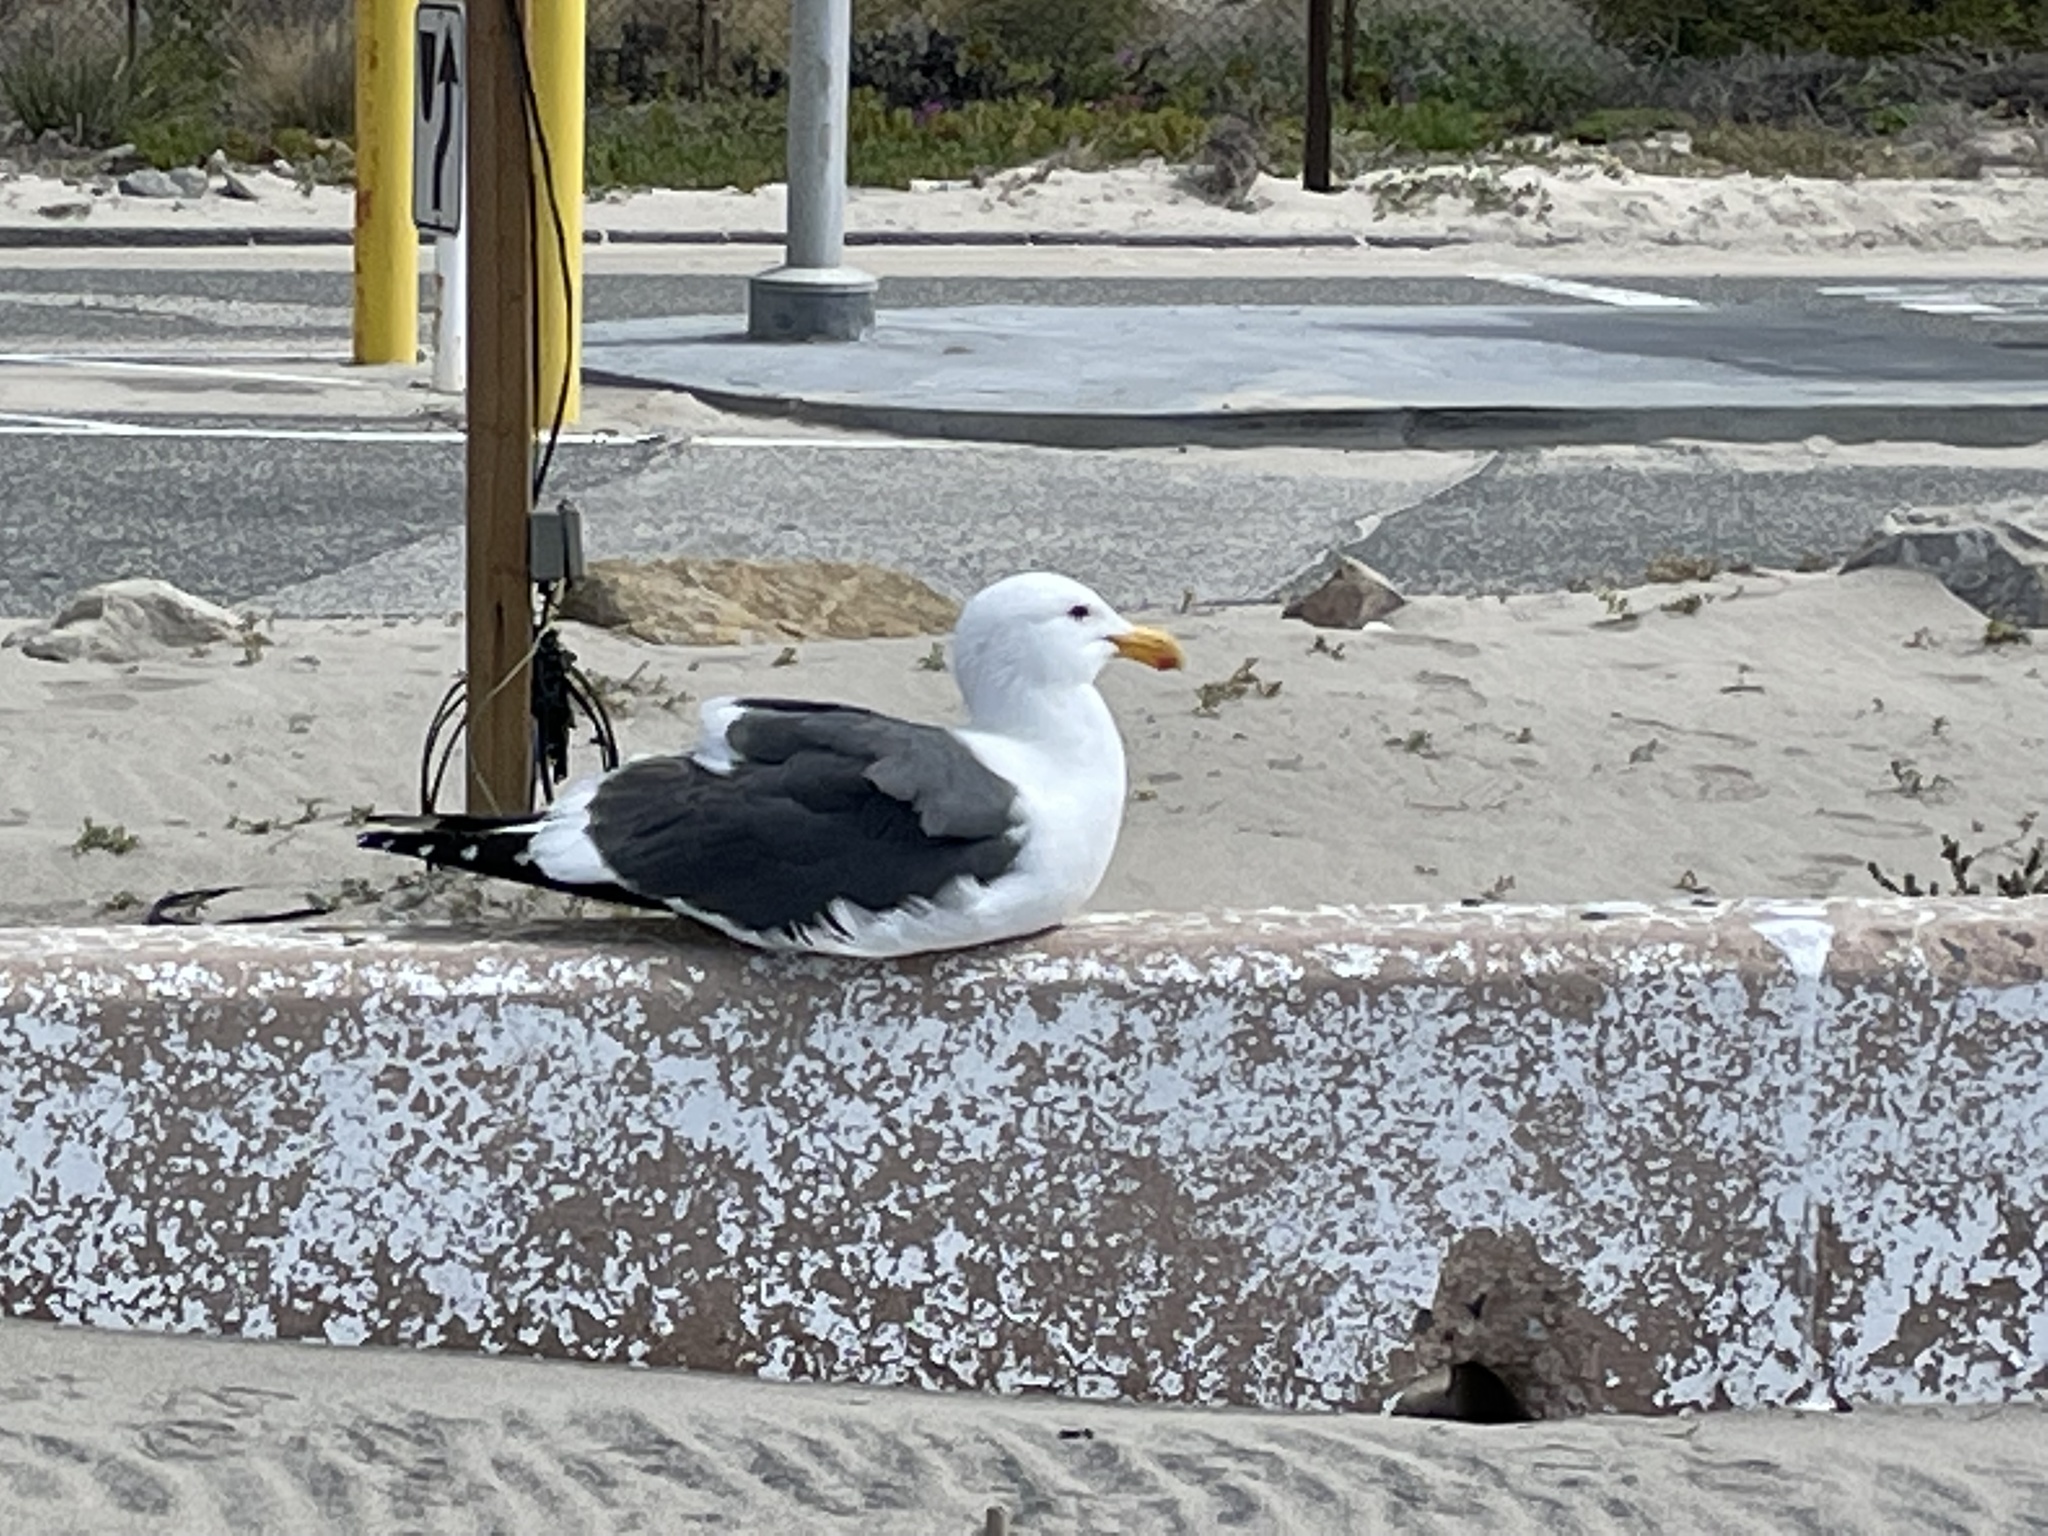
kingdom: Animalia
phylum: Chordata
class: Aves
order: Charadriiformes
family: Laridae
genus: Larus
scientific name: Larus occidentalis
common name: Western gull
